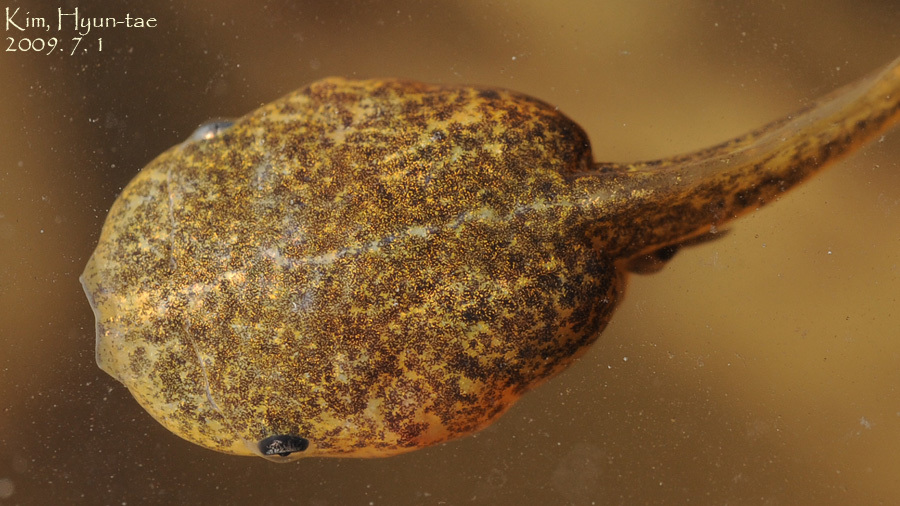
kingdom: Animalia
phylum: Chordata
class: Amphibia
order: Anura
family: Microhylidae
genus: Kaloula
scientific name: Kaloula borealis
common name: Boreal digging frog
